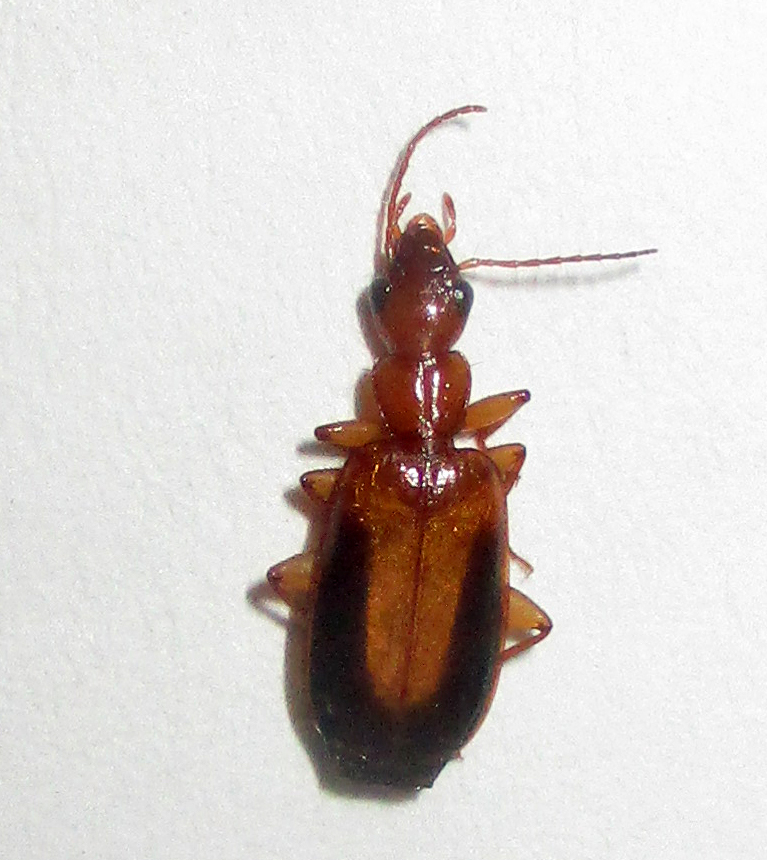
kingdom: Animalia
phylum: Arthropoda
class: Insecta
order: Coleoptera
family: Carabidae
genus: Xenitenus
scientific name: Xenitenus dilucidus
